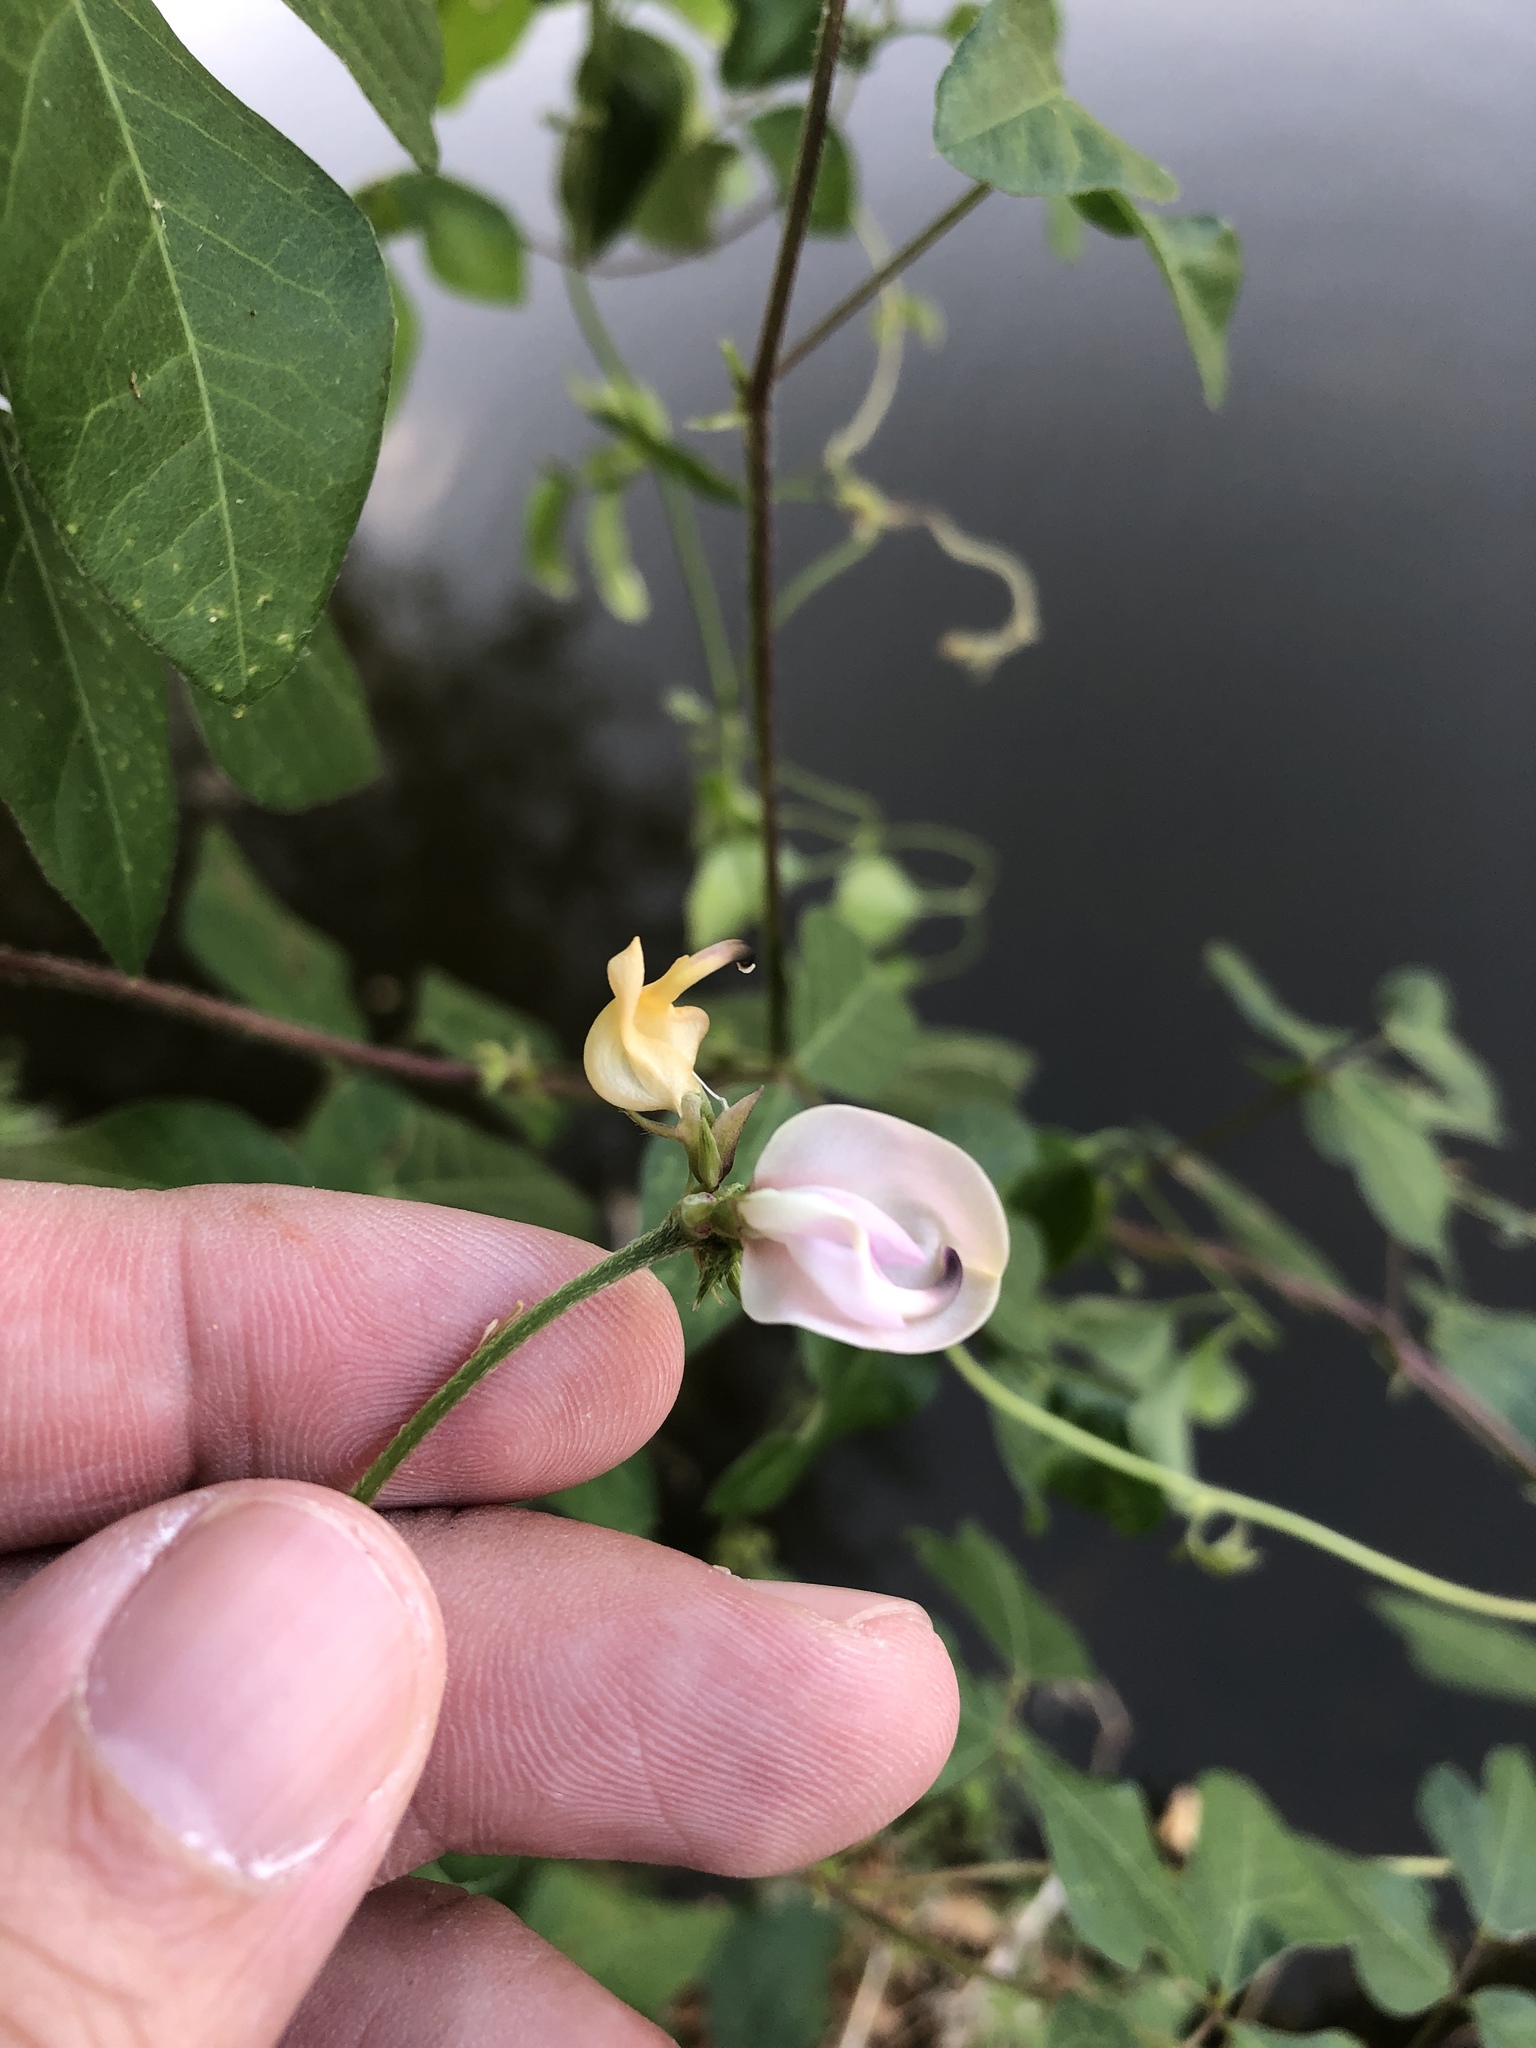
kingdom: Plantae
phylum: Tracheophyta
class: Magnoliopsida
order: Fabales
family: Fabaceae
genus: Strophostyles
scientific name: Strophostyles helvola
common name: Trailing wild bean
